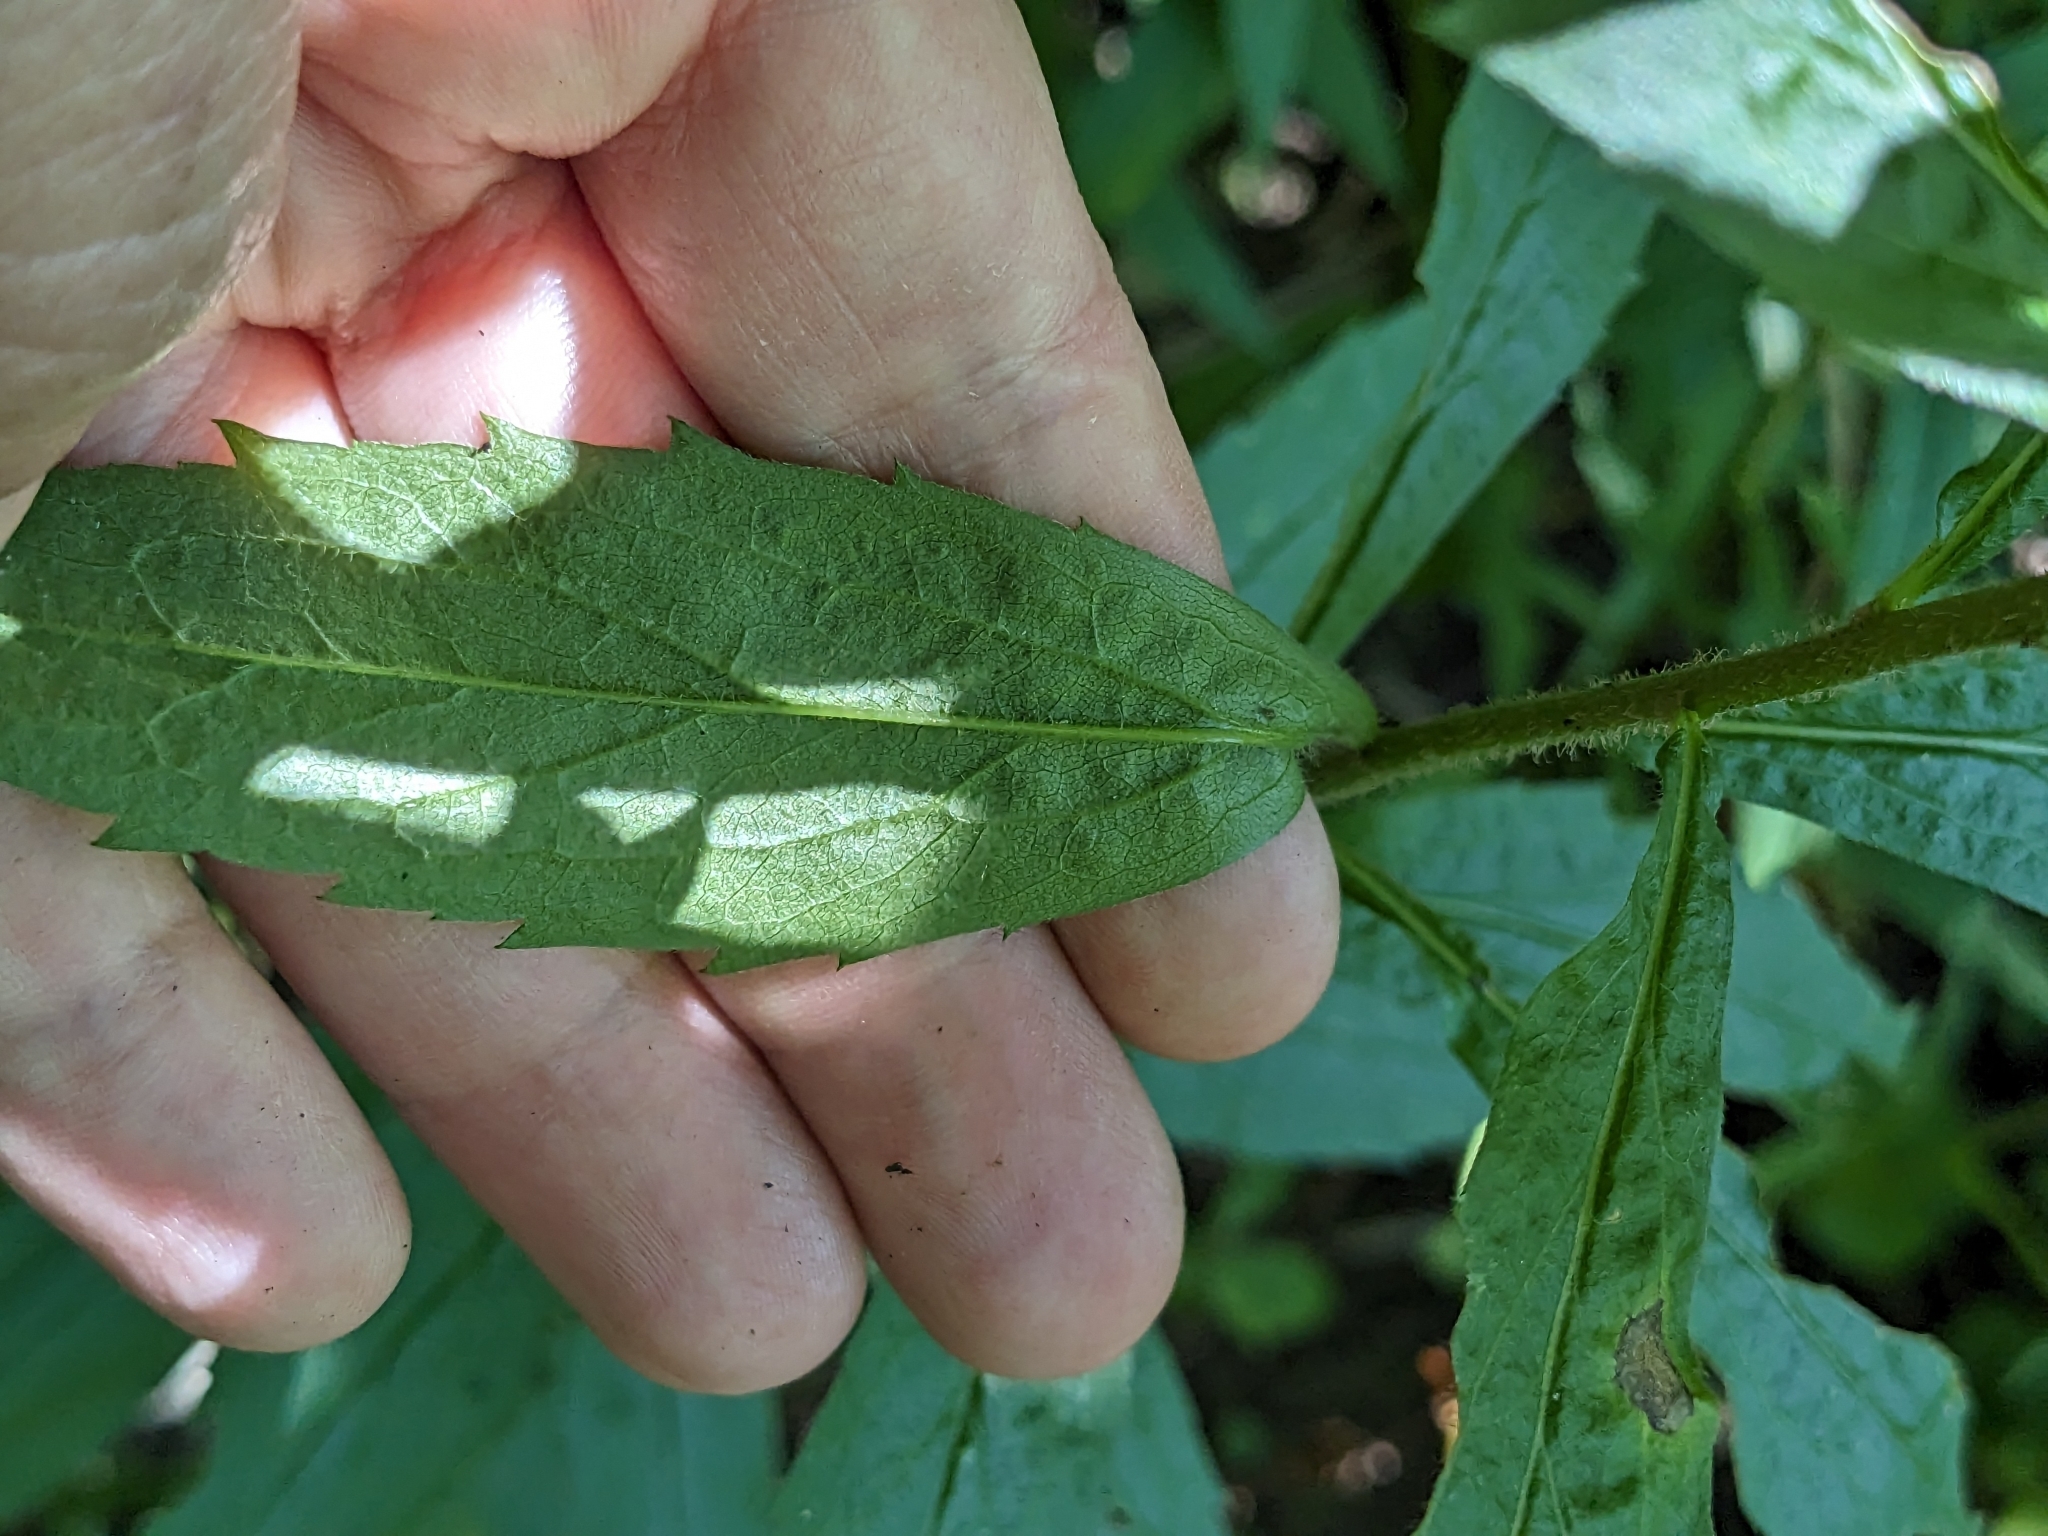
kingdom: Plantae
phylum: Tracheophyta
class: Magnoliopsida
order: Asterales
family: Asteraceae
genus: Solidago
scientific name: Solidago rugosa
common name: Rough-stemmed goldenrod
